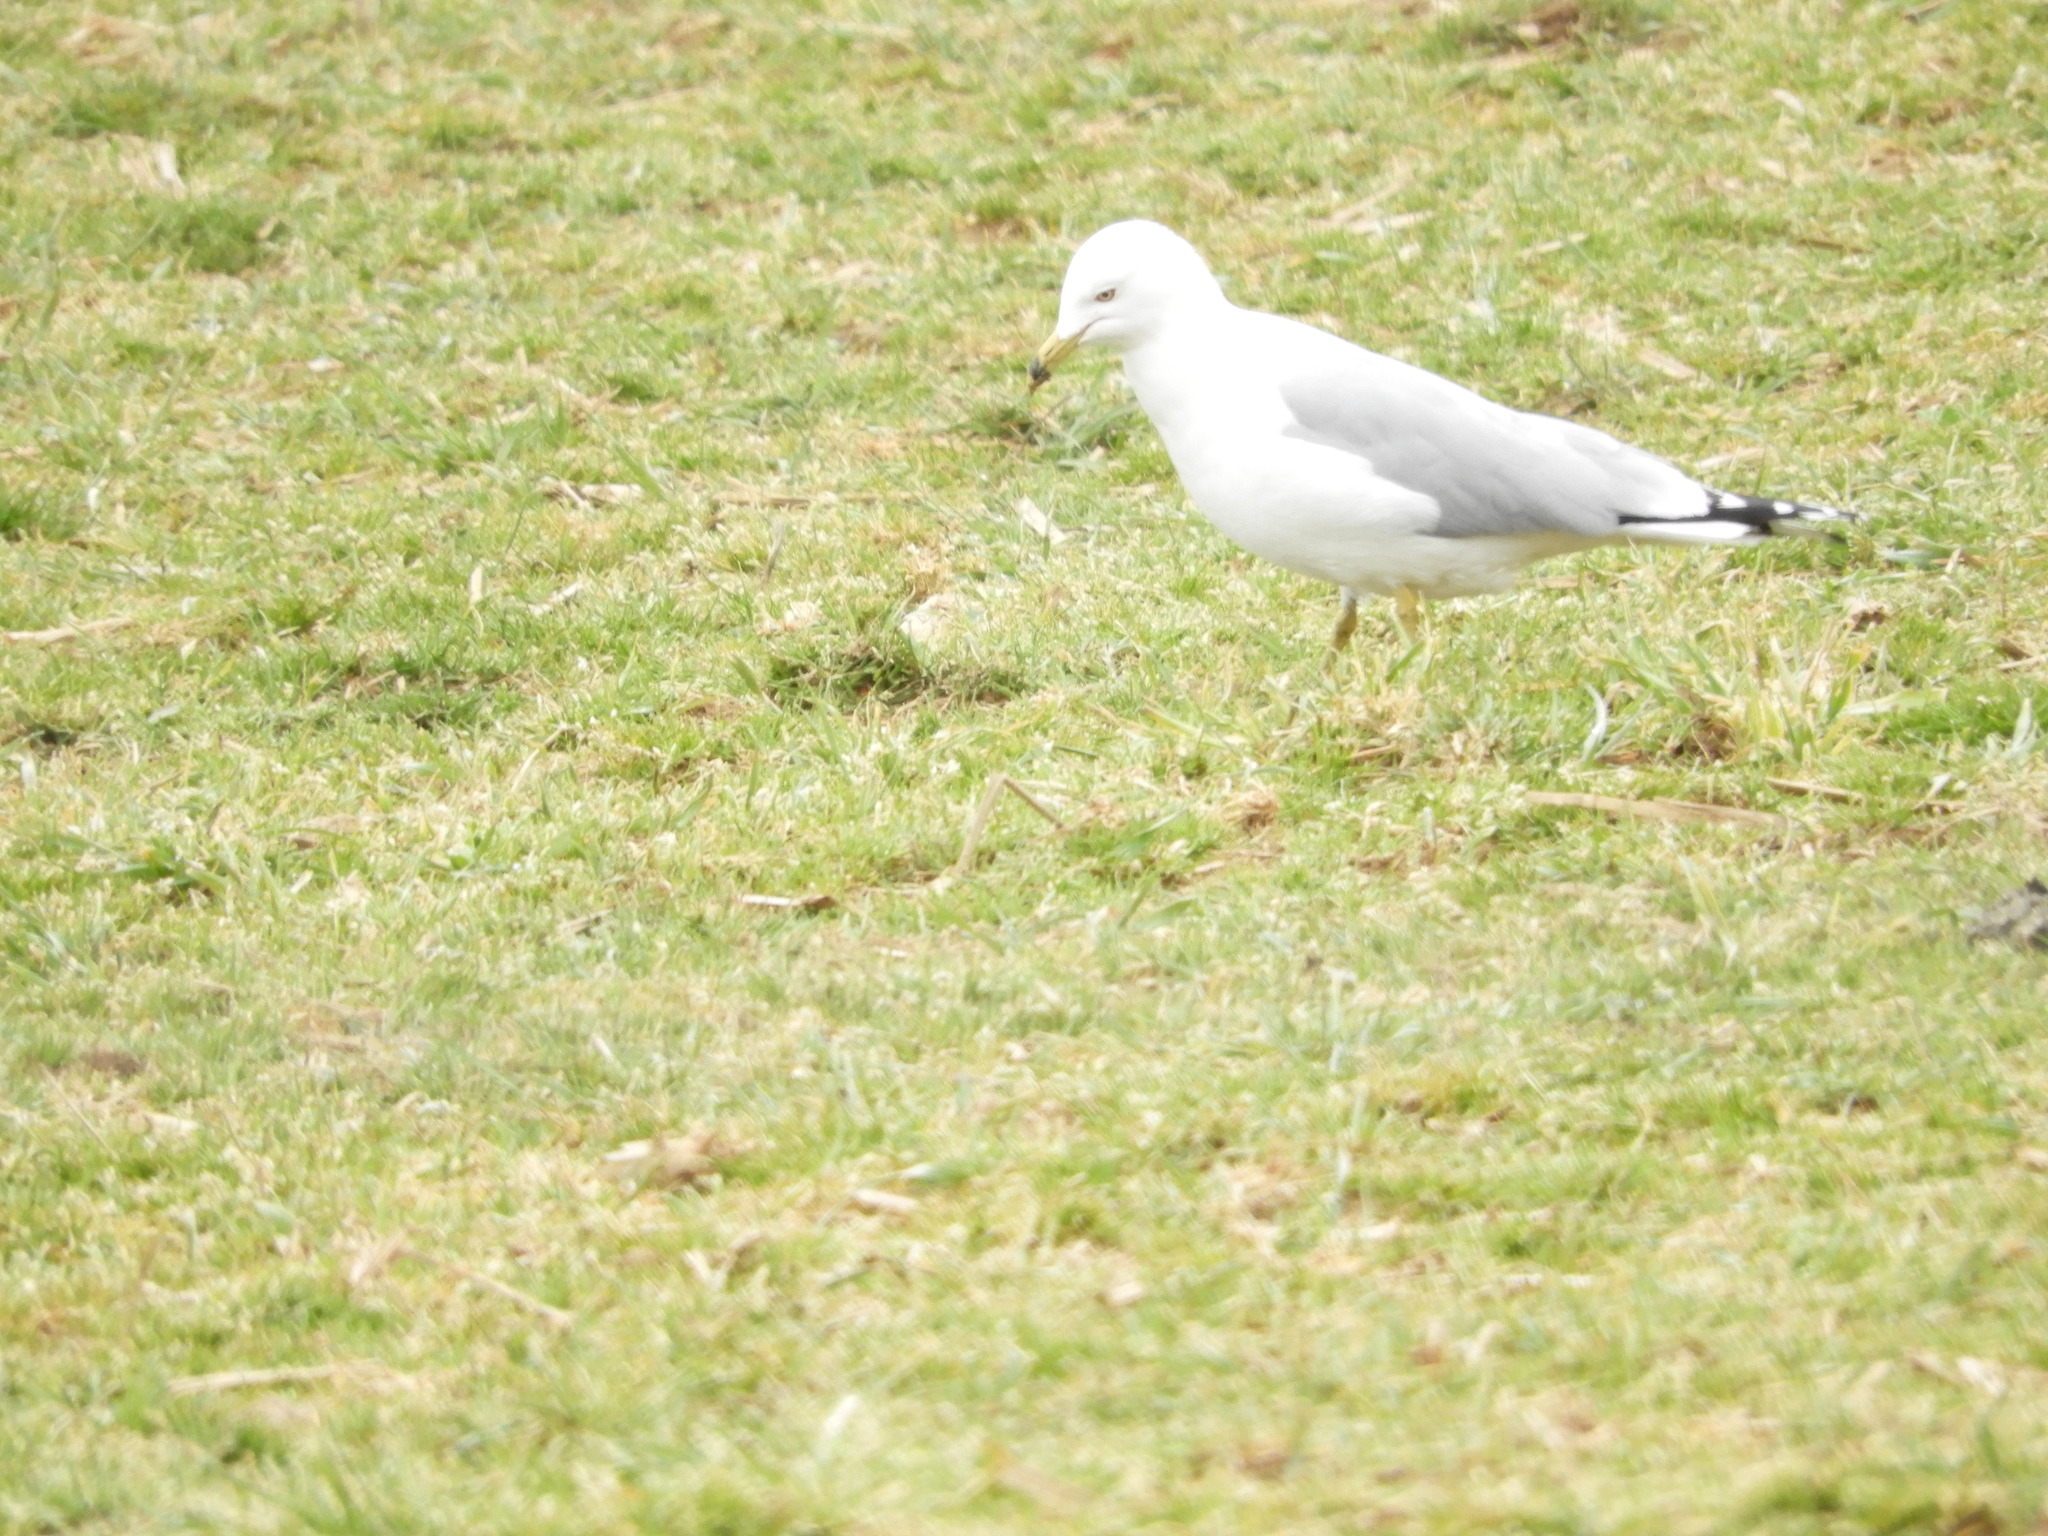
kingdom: Animalia
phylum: Chordata
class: Aves
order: Charadriiformes
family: Laridae
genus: Larus
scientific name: Larus delawarensis
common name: Ring-billed gull
